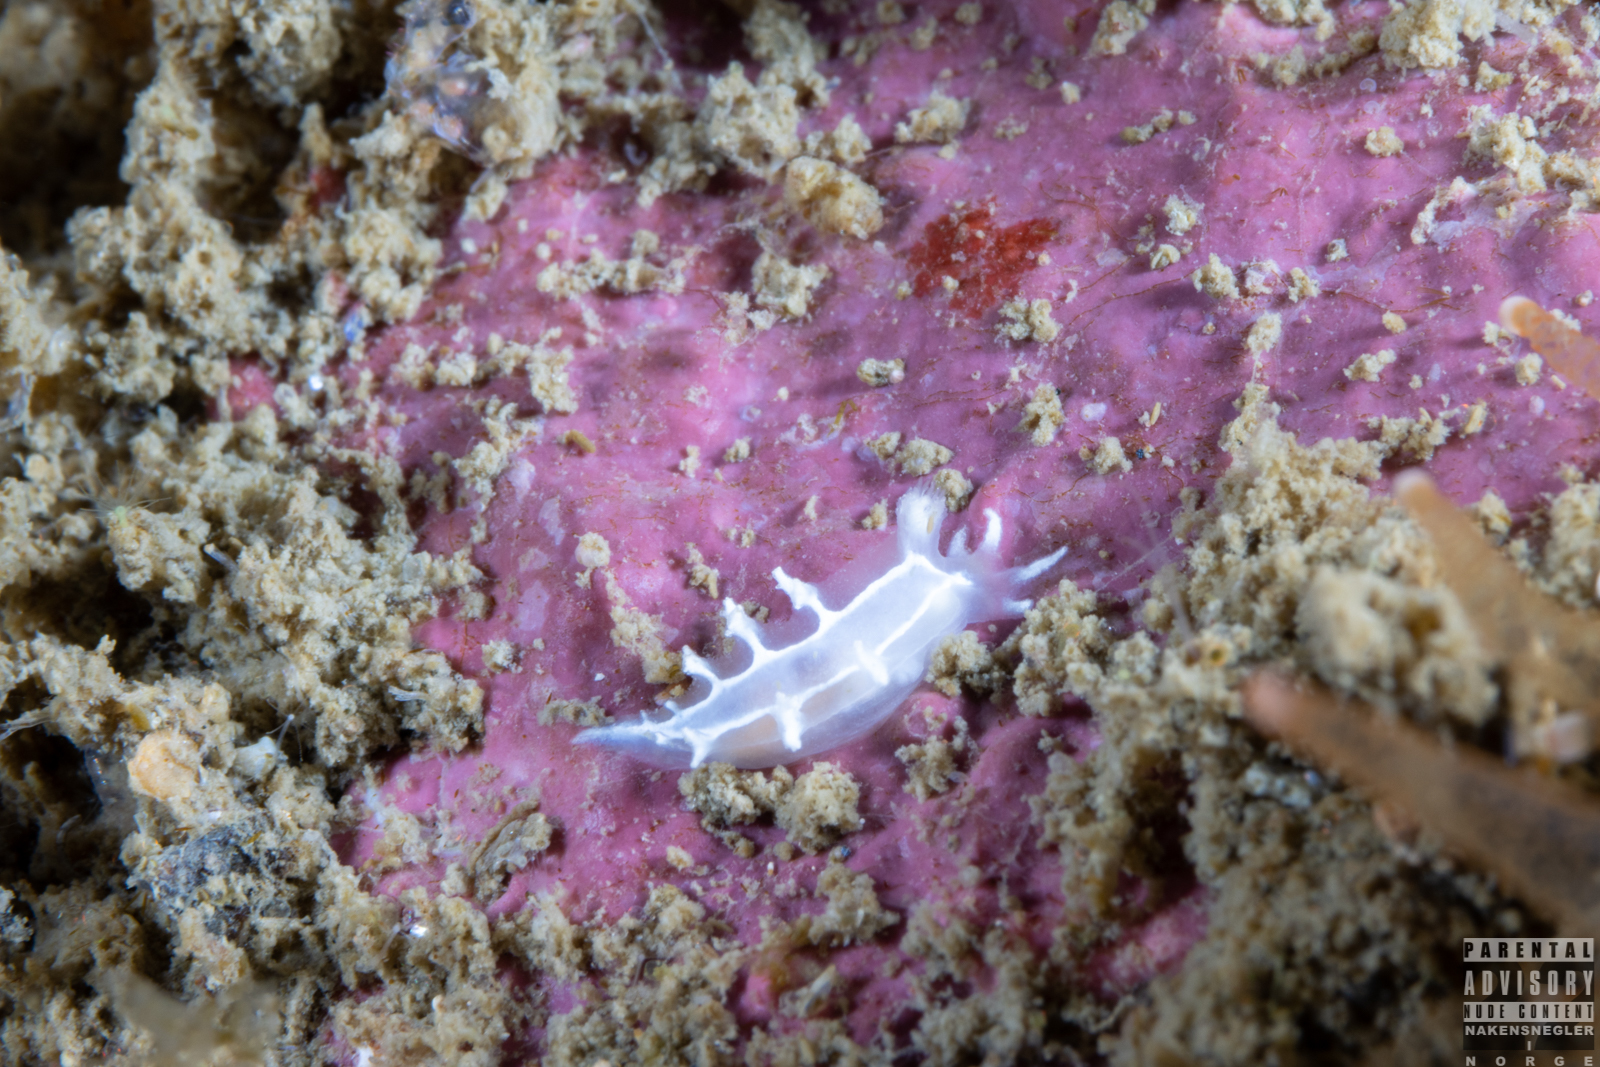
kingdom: Animalia
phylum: Mollusca
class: Gastropoda
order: Nudibranchia
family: Tritoniidae
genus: Duvaucelia
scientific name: Duvaucelia lineata
